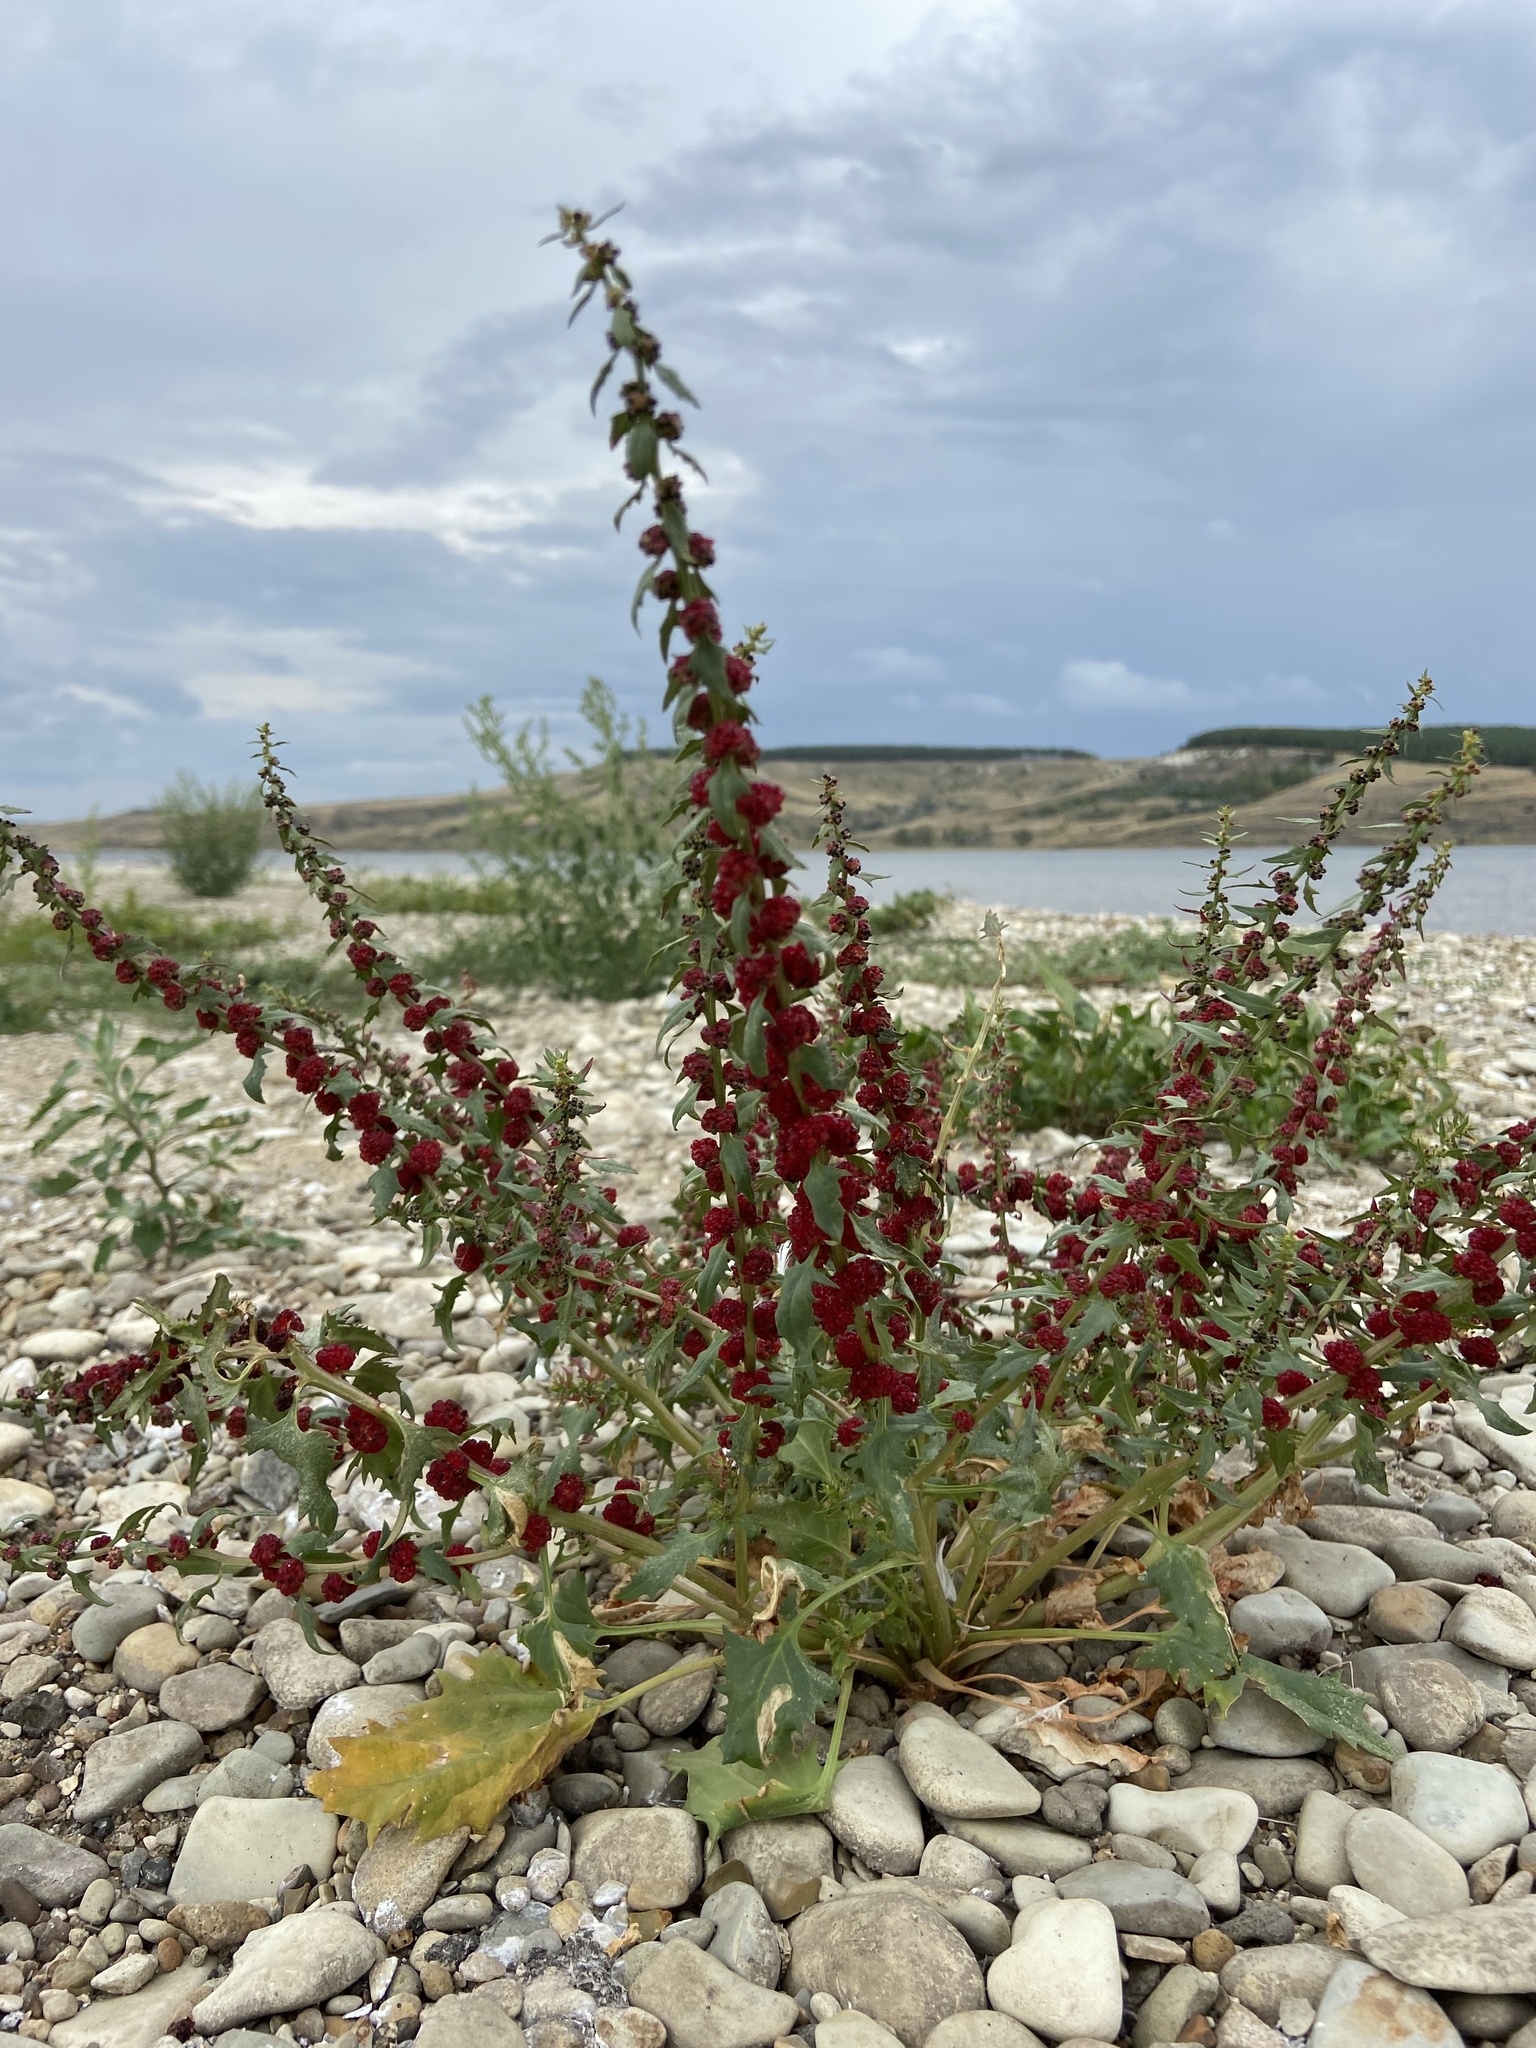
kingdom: Plantae
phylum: Tracheophyta
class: Magnoliopsida
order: Caryophyllales
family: Amaranthaceae
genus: Blitum
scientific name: Blitum virgatum
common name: Strawberry goosefoot
